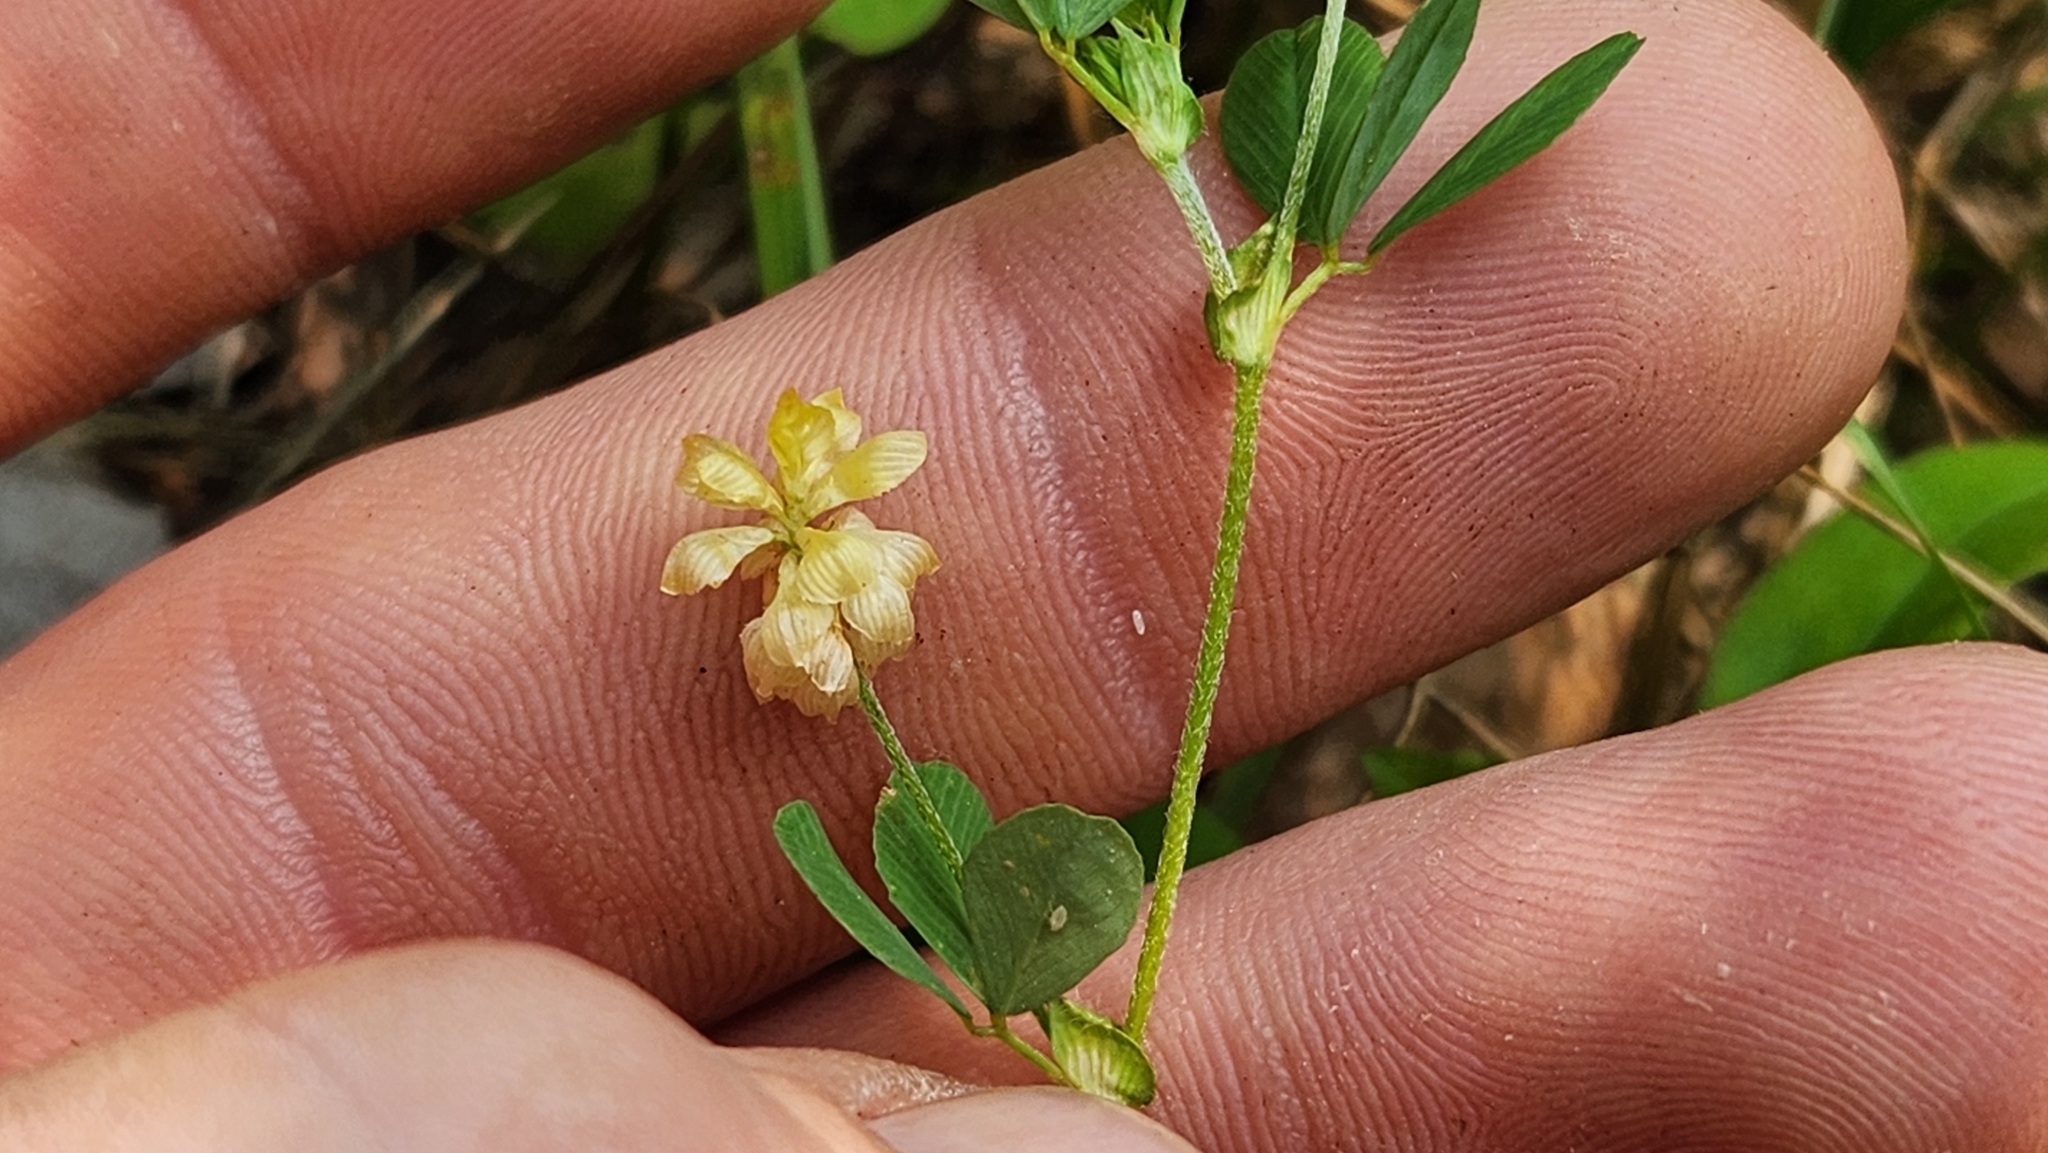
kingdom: Plantae
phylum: Tracheophyta
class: Magnoliopsida
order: Fabales
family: Fabaceae
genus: Trifolium
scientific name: Trifolium campestre
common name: Field clover
